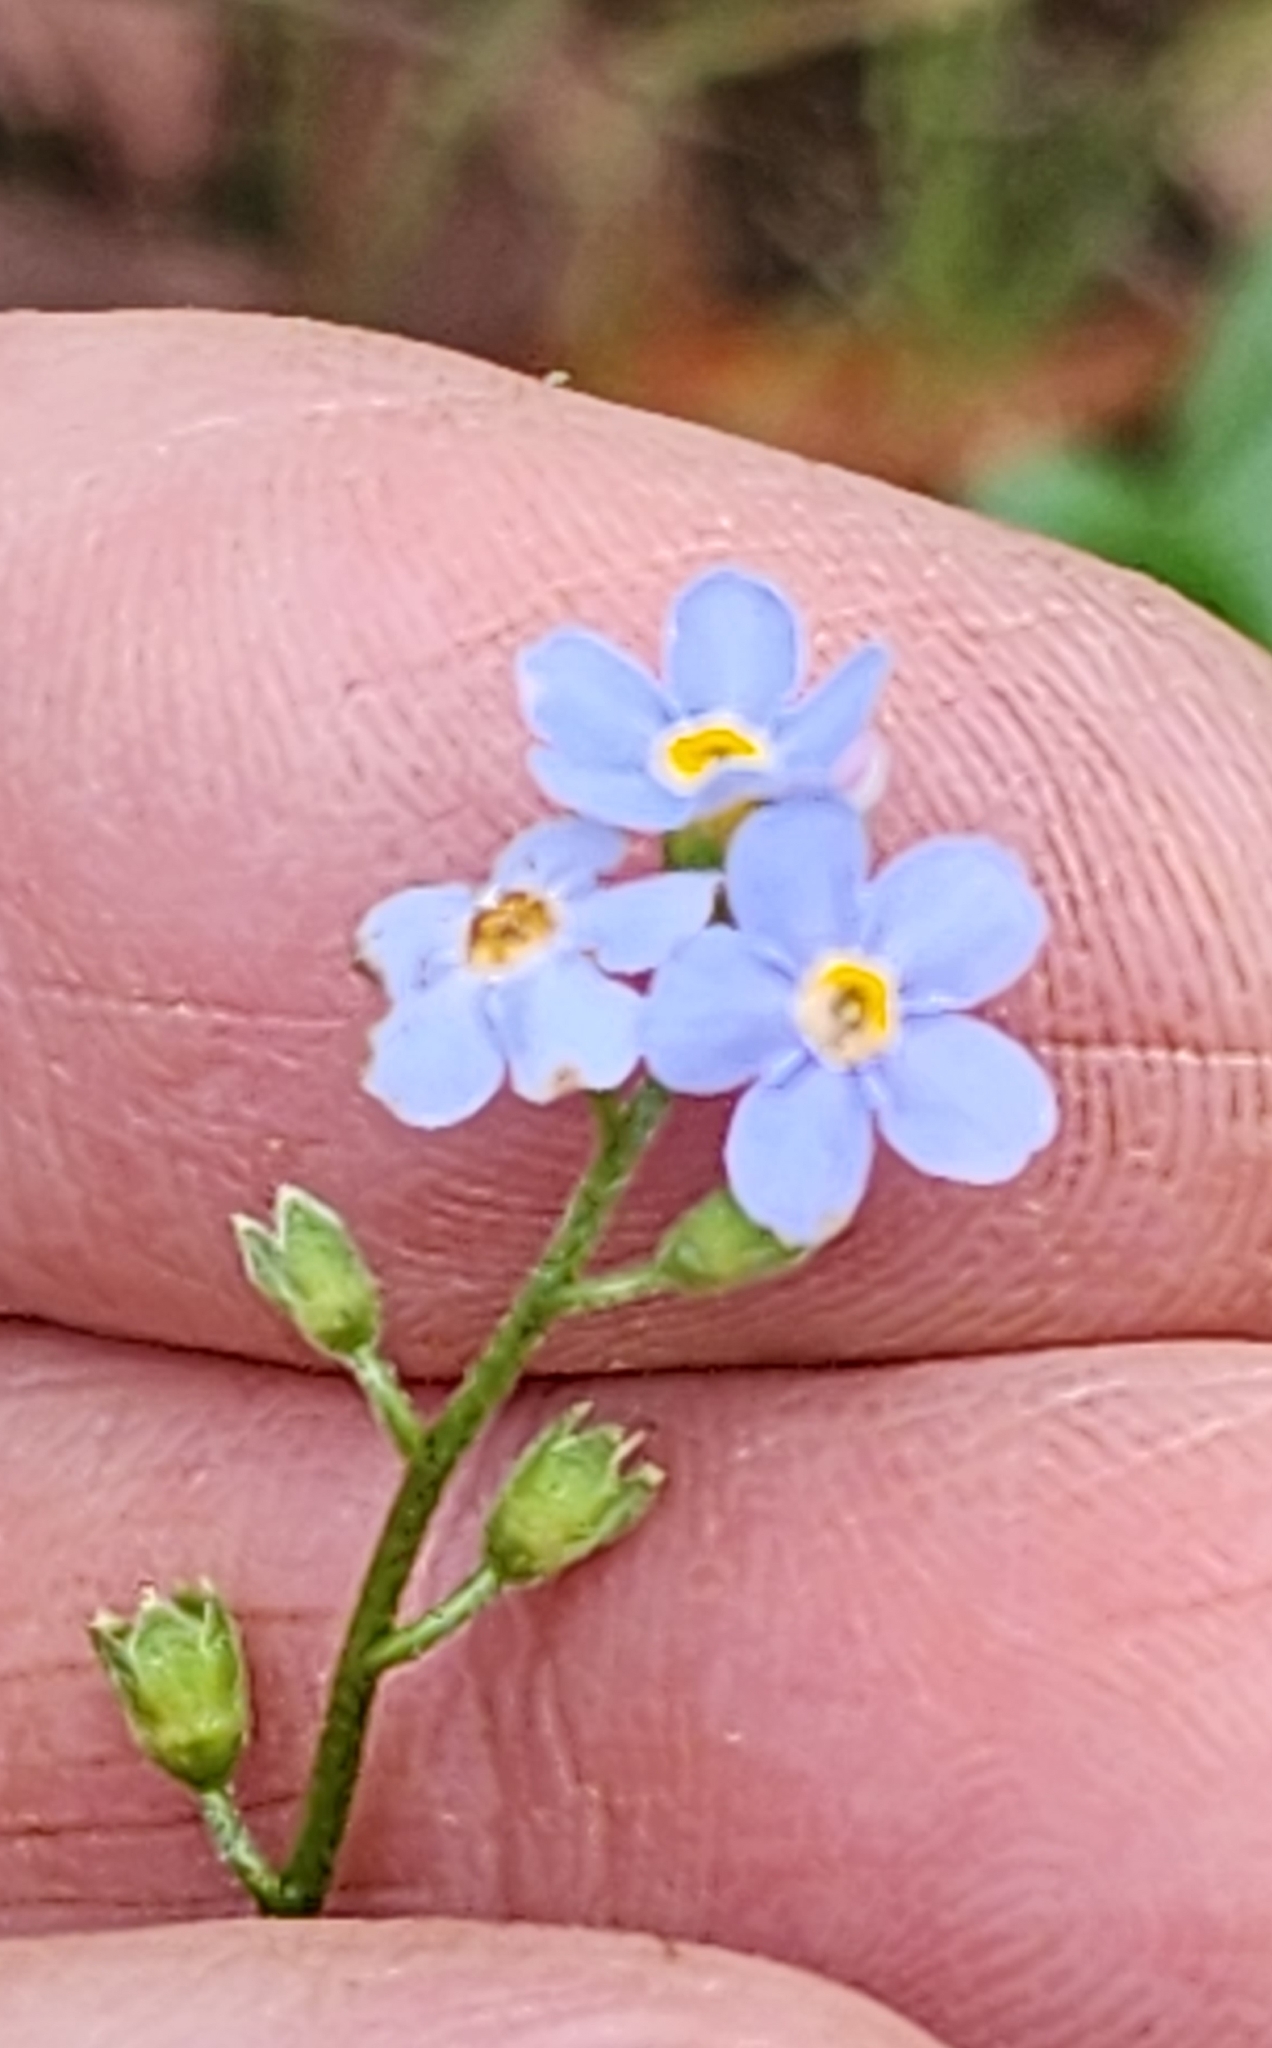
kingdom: Plantae
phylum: Tracheophyta
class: Magnoliopsida
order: Boraginales
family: Boraginaceae
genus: Myosotis
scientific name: Myosotis scorpioides
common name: Water forget-me-not
